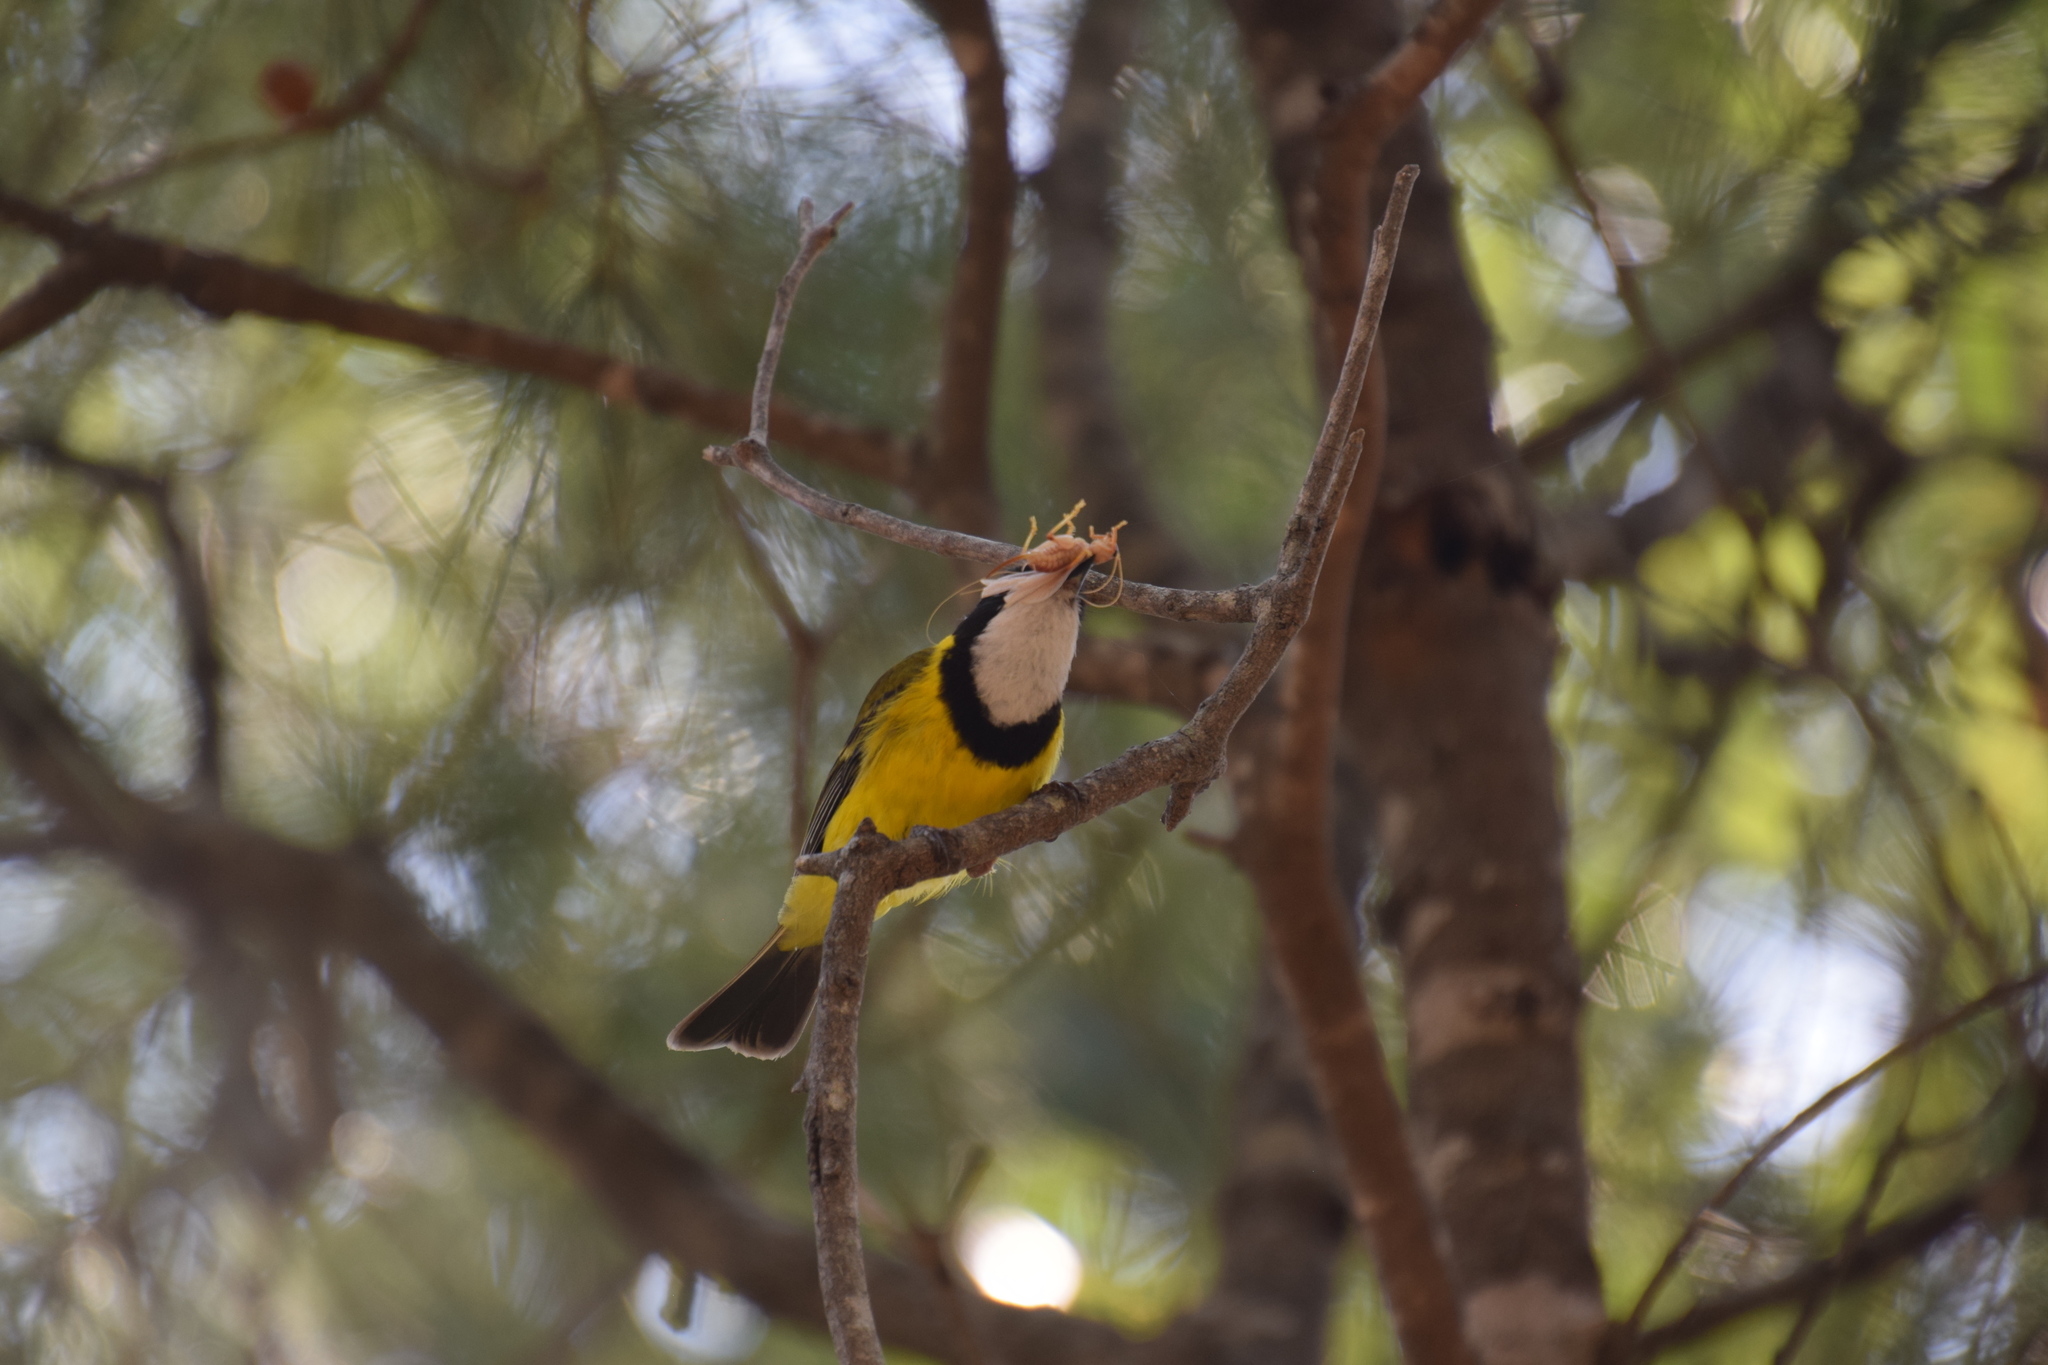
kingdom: Animalia
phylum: Chordata
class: Aves
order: Passeriformes
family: Pachycephalidae
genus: Pachycephala
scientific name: Pachycephala pectoralis
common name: Australian golden whistler
